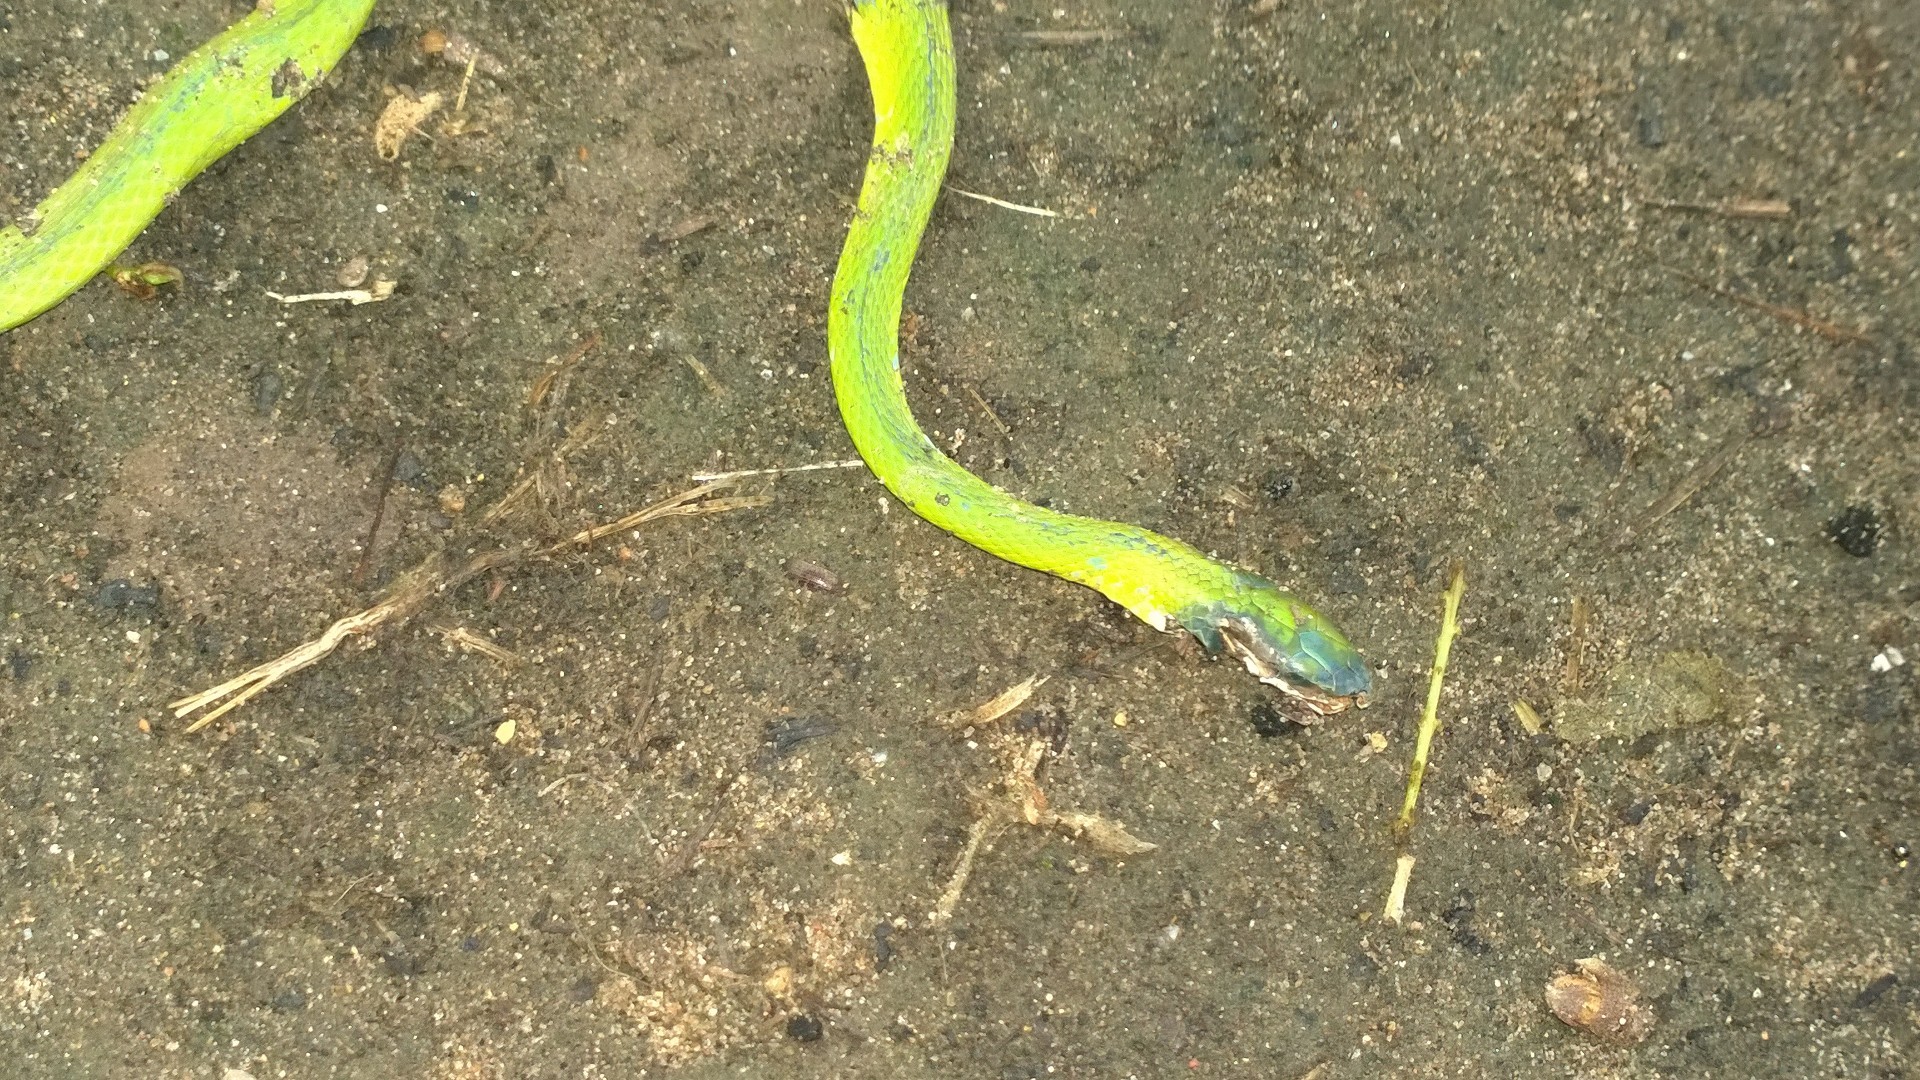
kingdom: Animalia
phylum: Chordata
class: Squamata
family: Colubridae
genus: Opheodrys
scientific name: Opheodrys aestivus
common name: Rough greensnake
